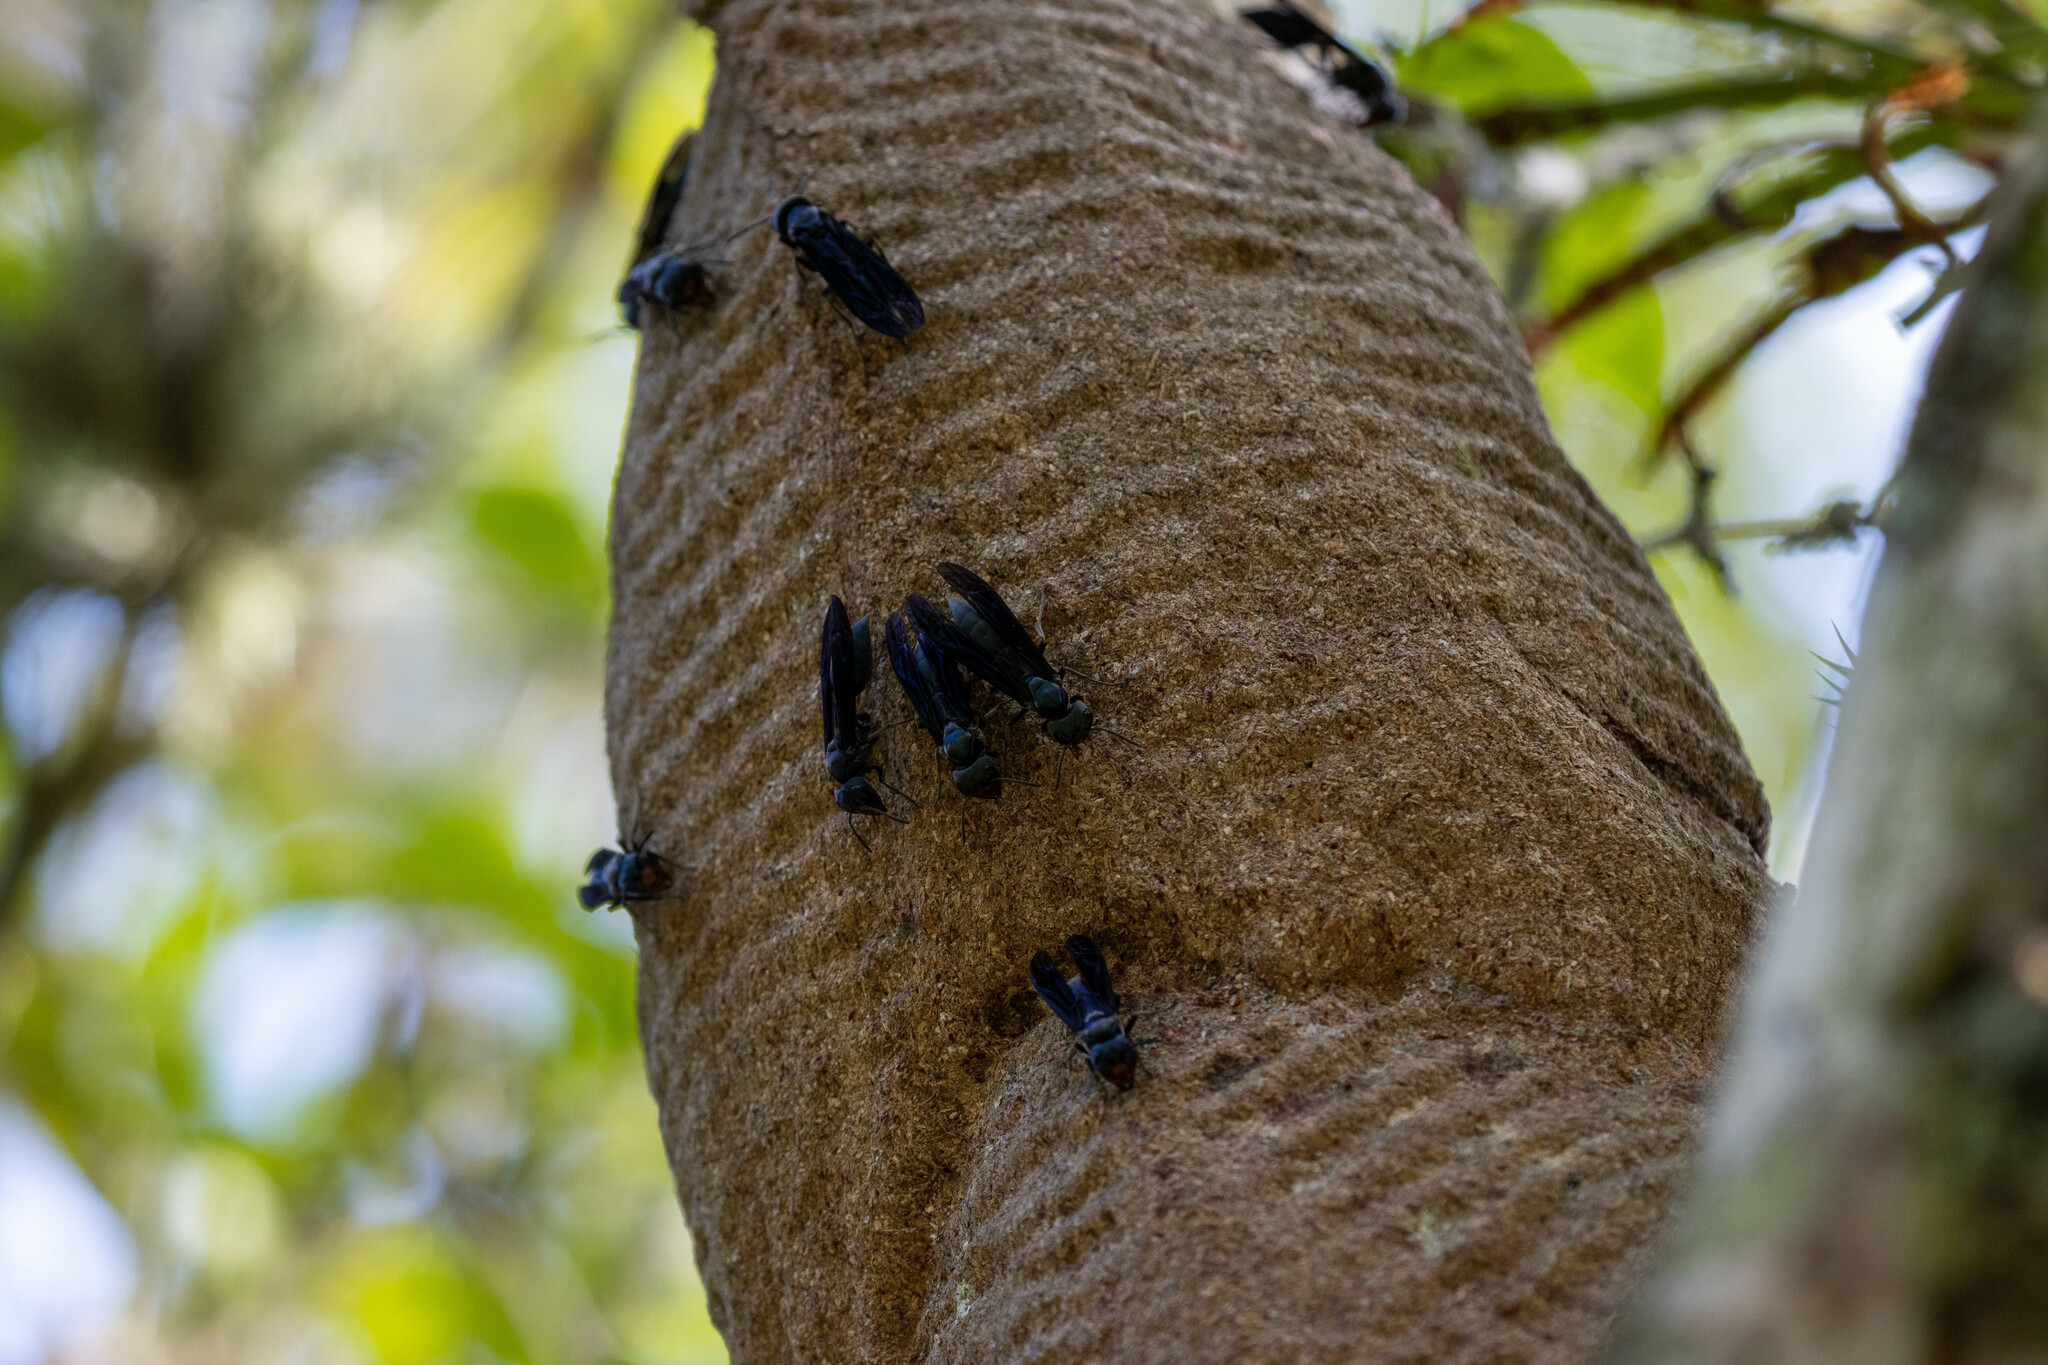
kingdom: Animalia
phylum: Arthropoda
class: Insecta
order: Hymenoptera
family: Vespidae
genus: Synoeca
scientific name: Synoeca cyanea
